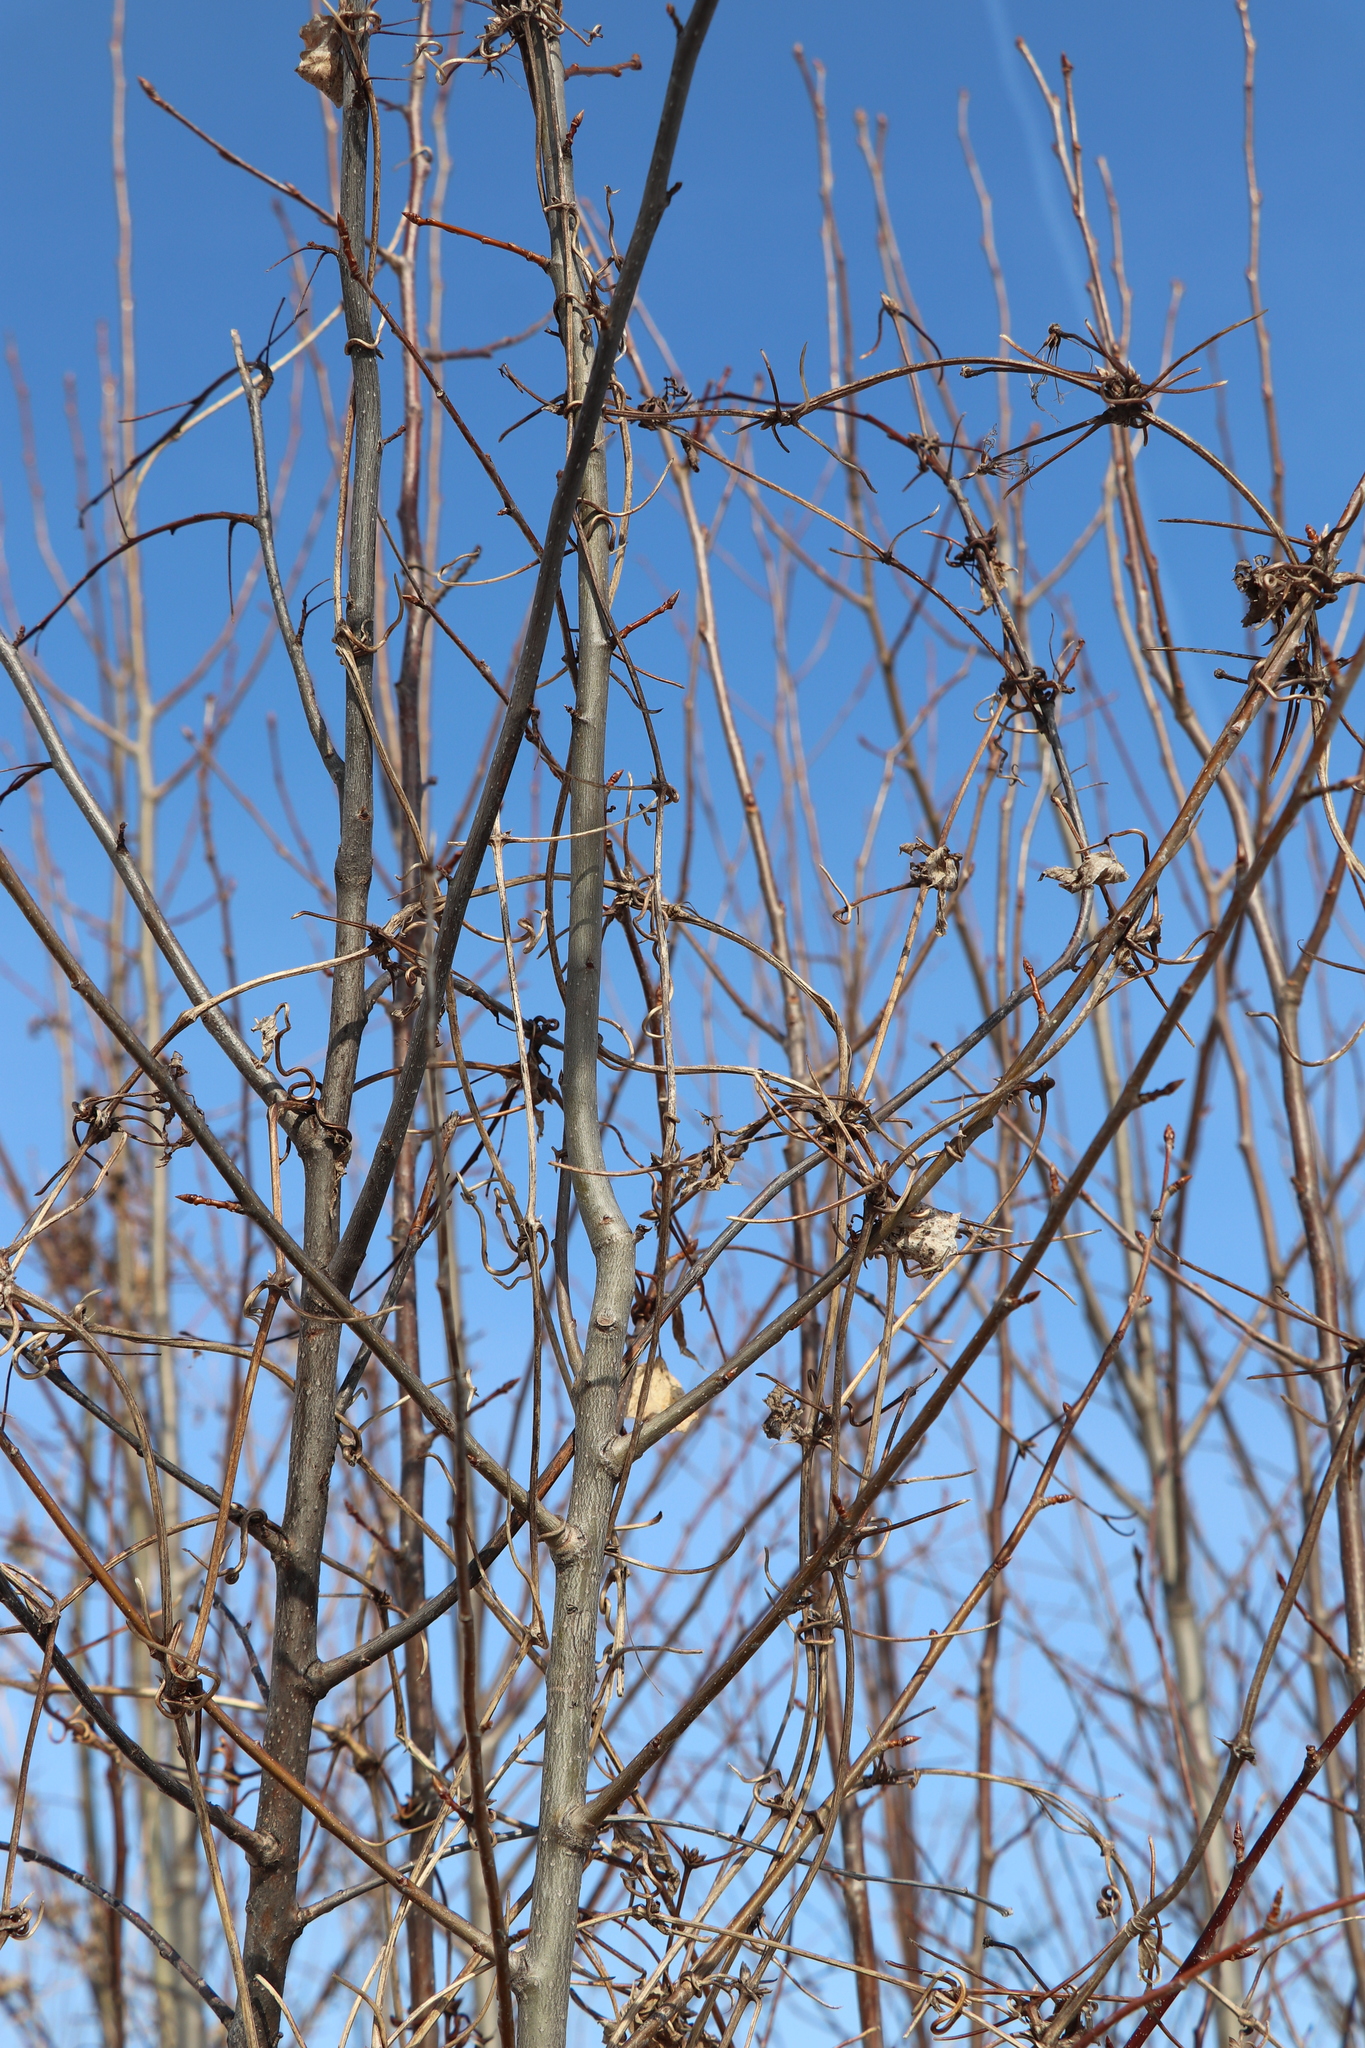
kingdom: Plantae
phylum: Tracheophyta
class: Magnoliopsida
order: Ranunculales
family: Ranunculaceae
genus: Clematis
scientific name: Clematis sibirica
